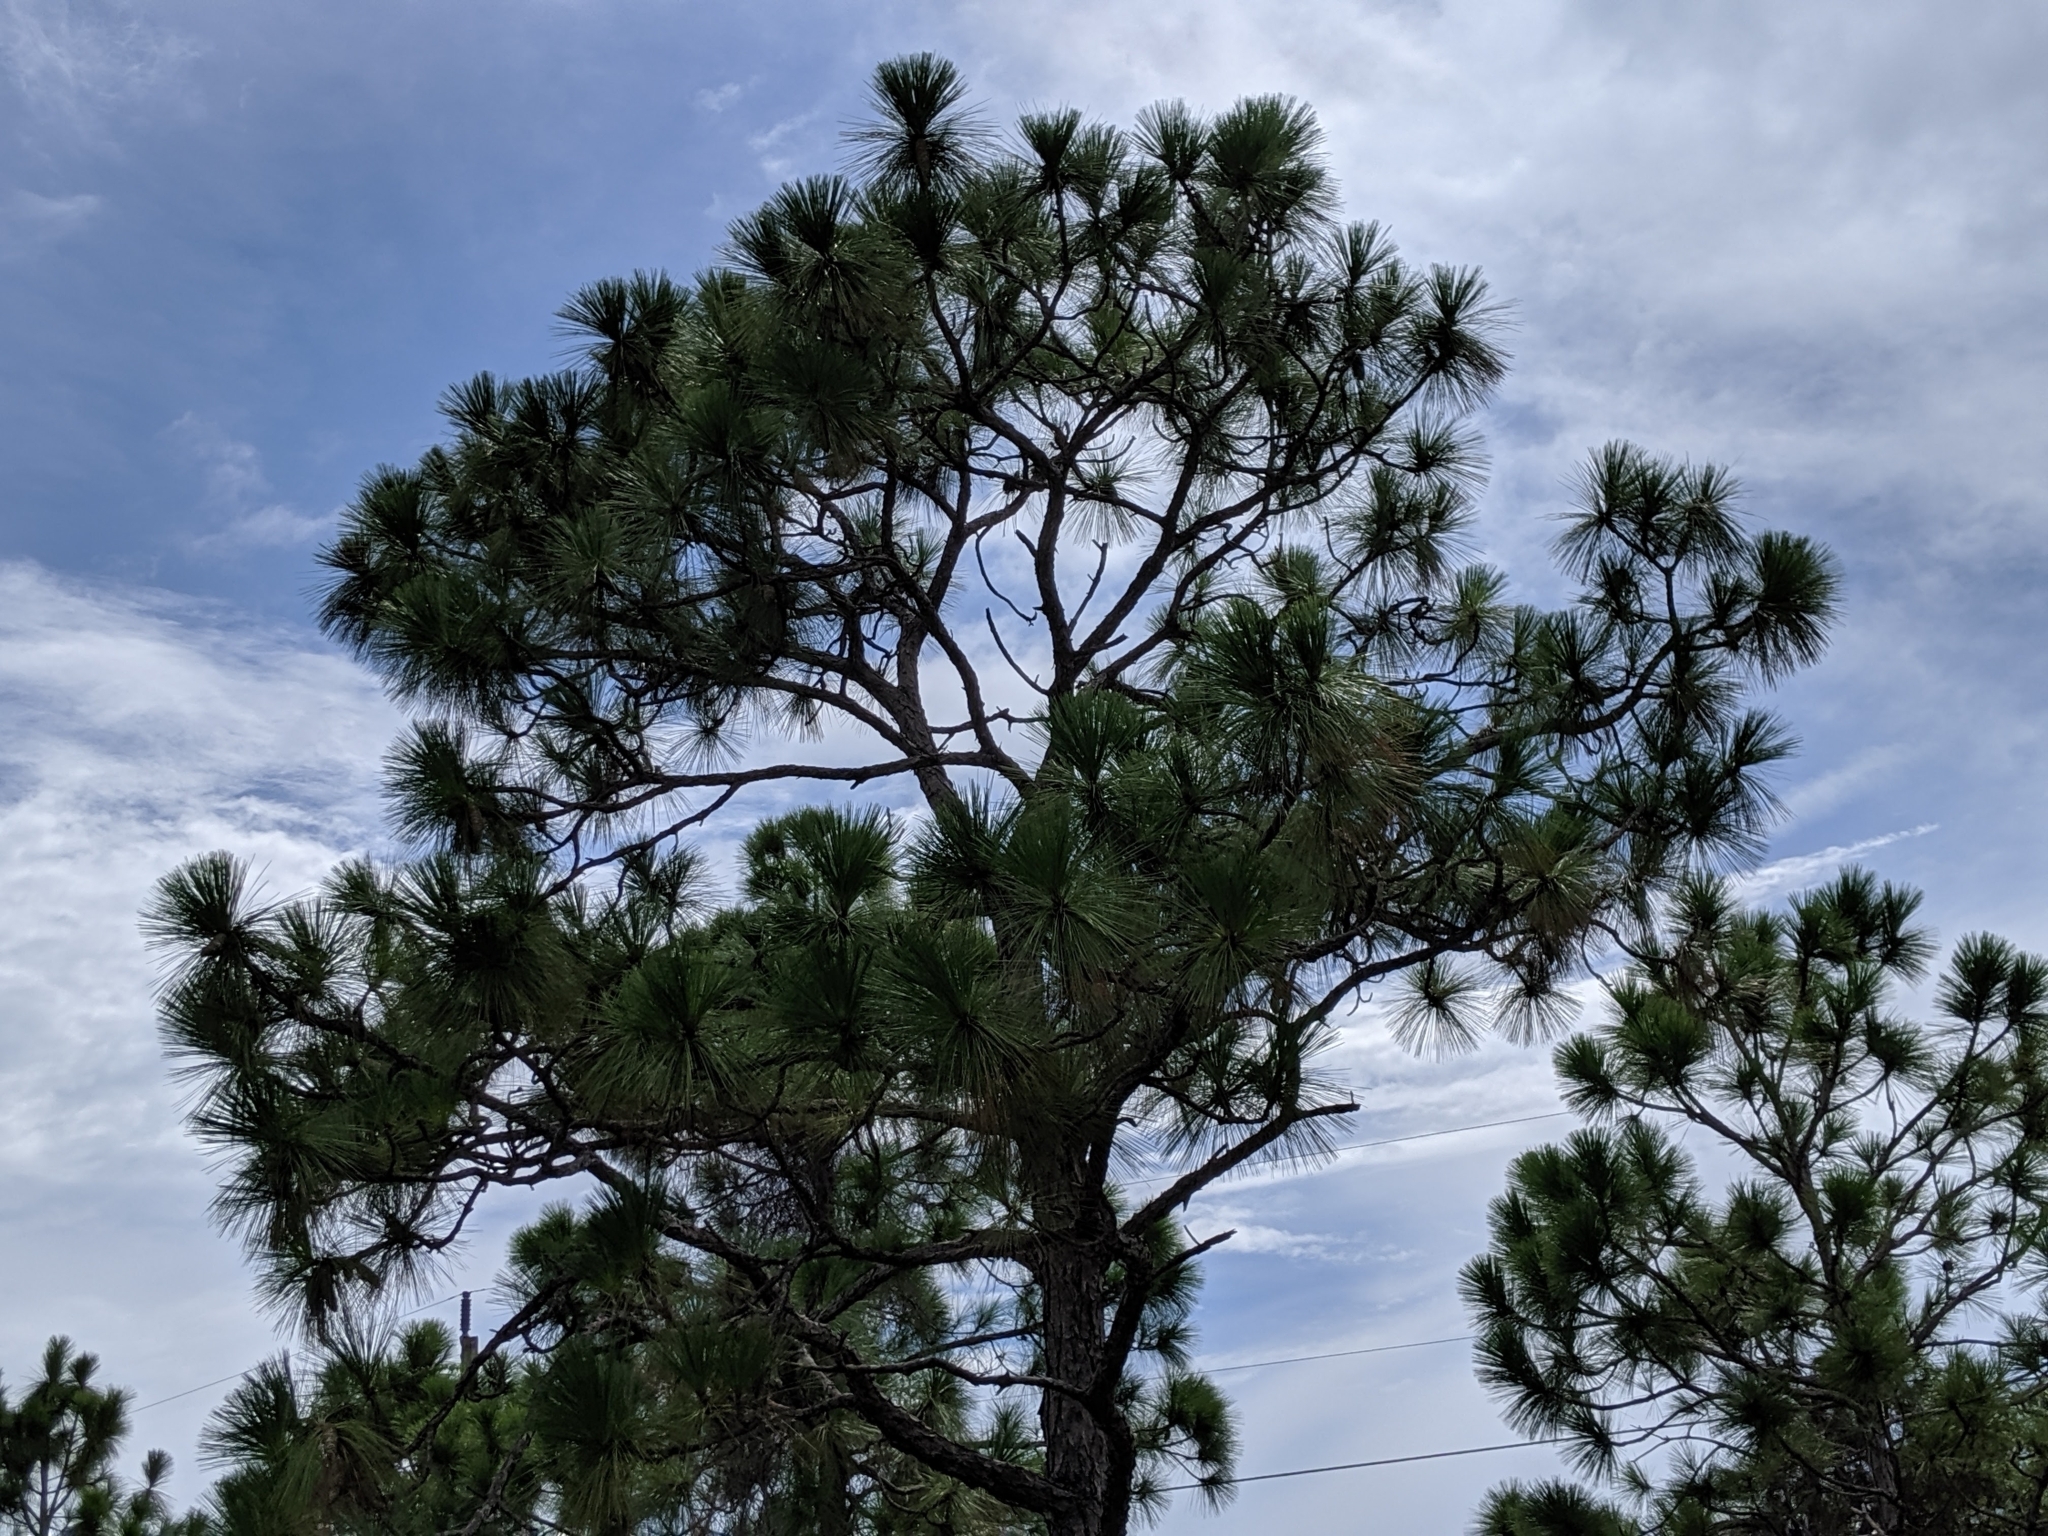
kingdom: Plantae
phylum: Tracheophyta
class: Pinopsida
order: Pinales
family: Pinaceae
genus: Pinus
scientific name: Pinus palustris
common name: Longleaf pine
